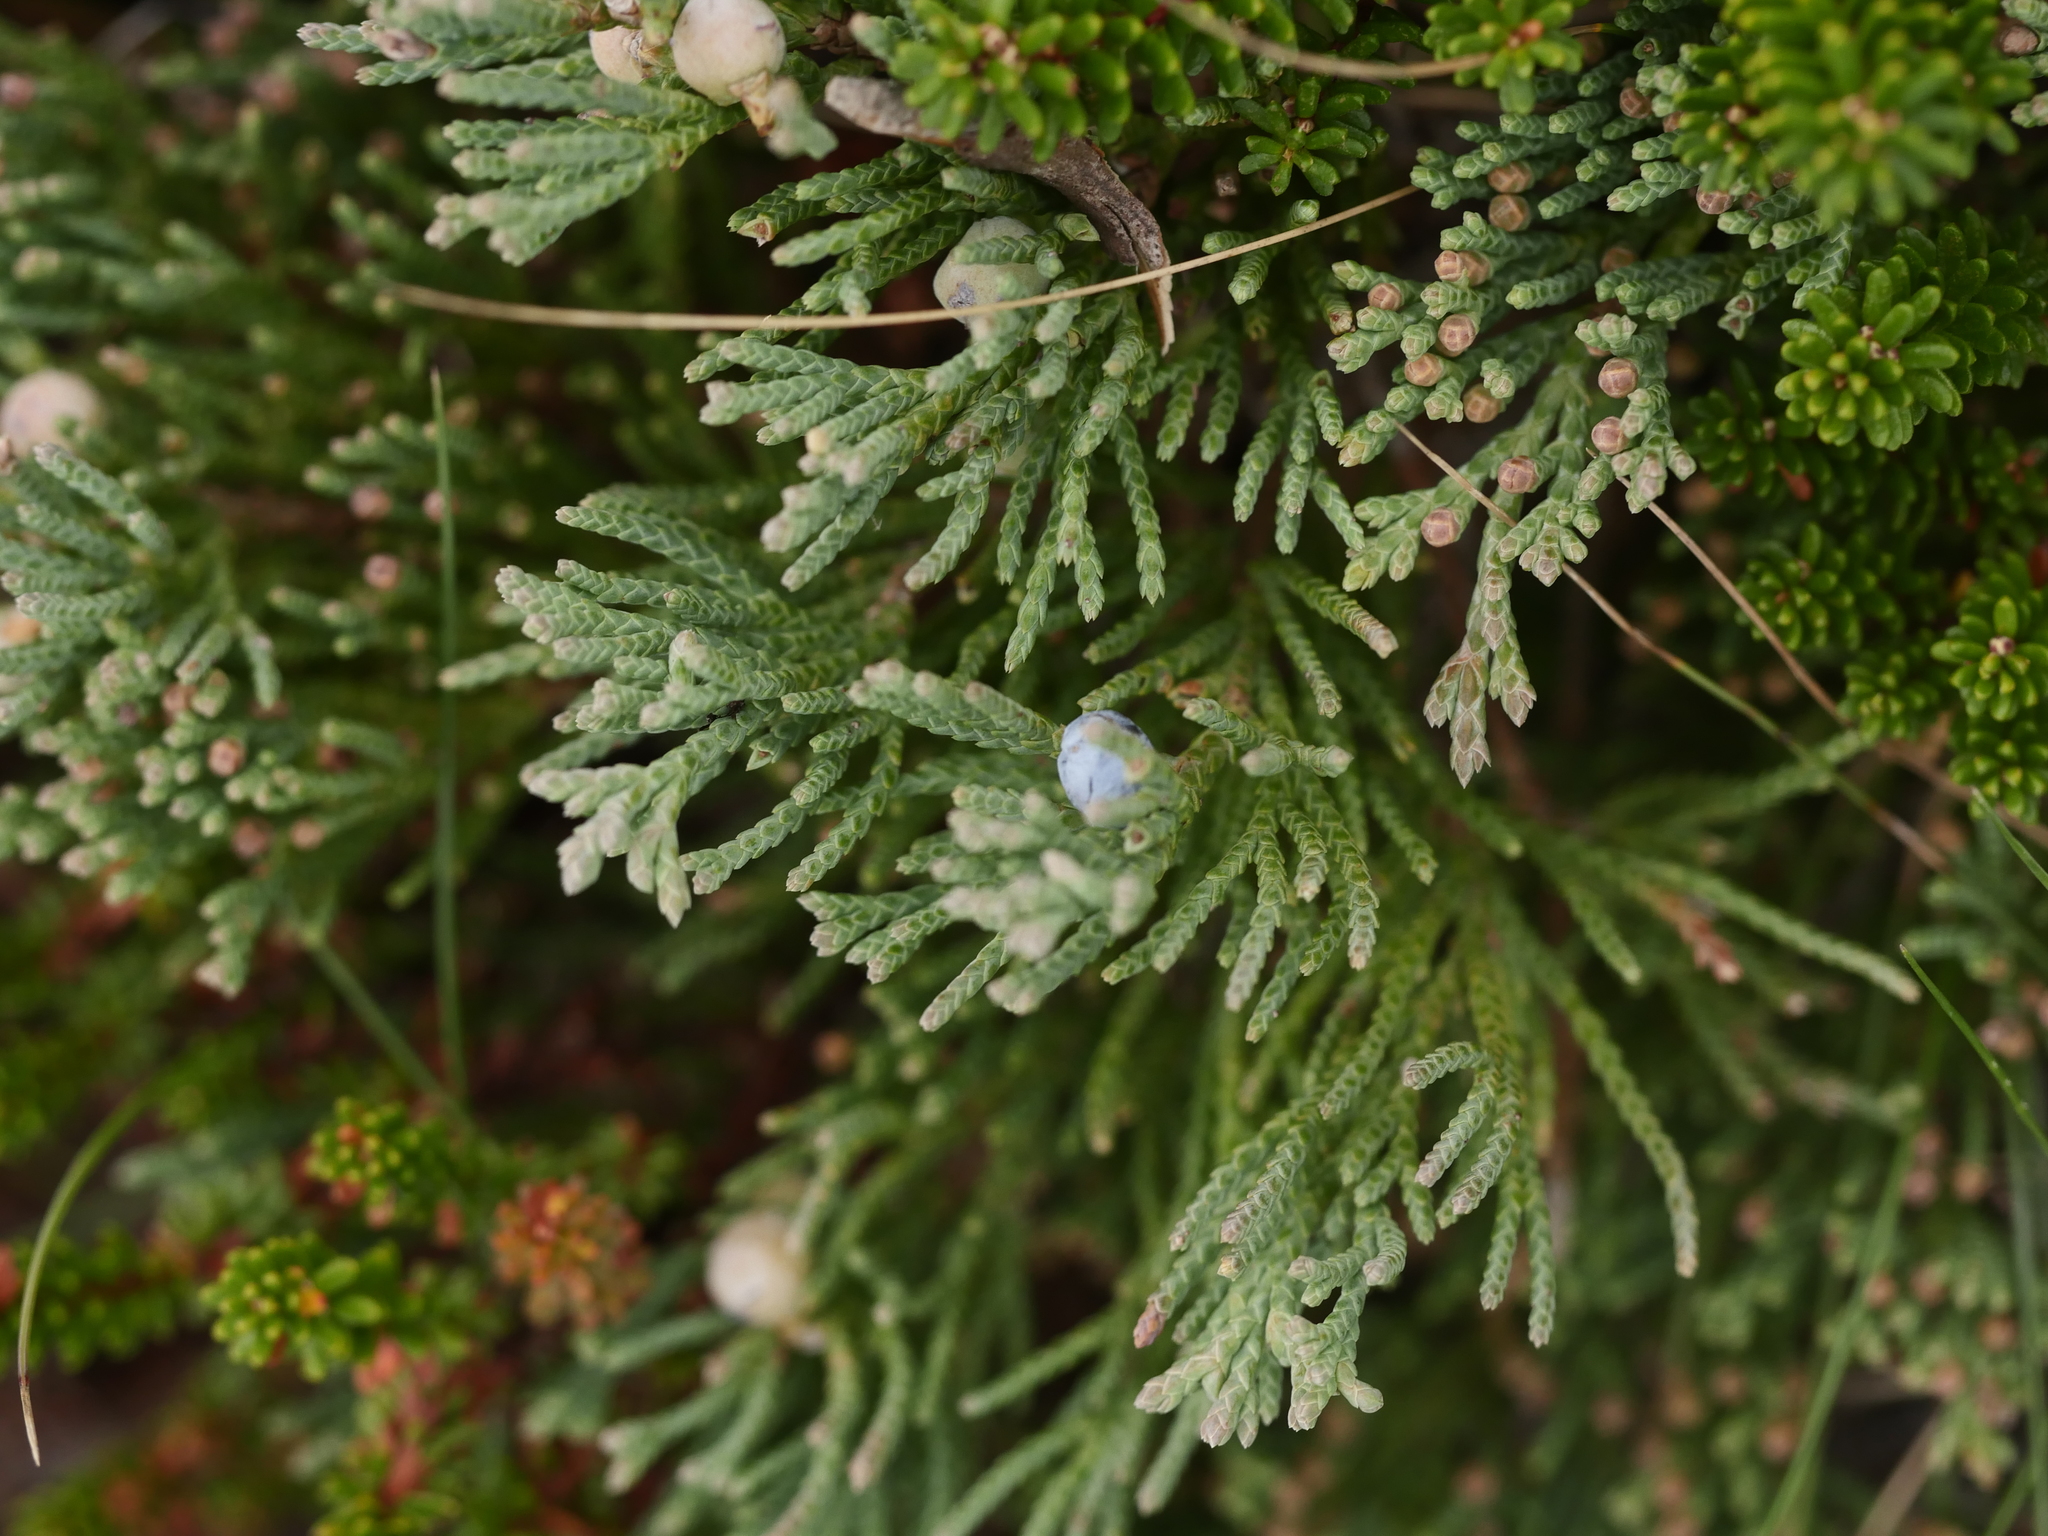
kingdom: Plantae
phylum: Tracheophyta
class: Pinopsida
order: Pinales
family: Cupressaceae
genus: Juniperus
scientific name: Juniperus horizontalis
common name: Creeping juniper
